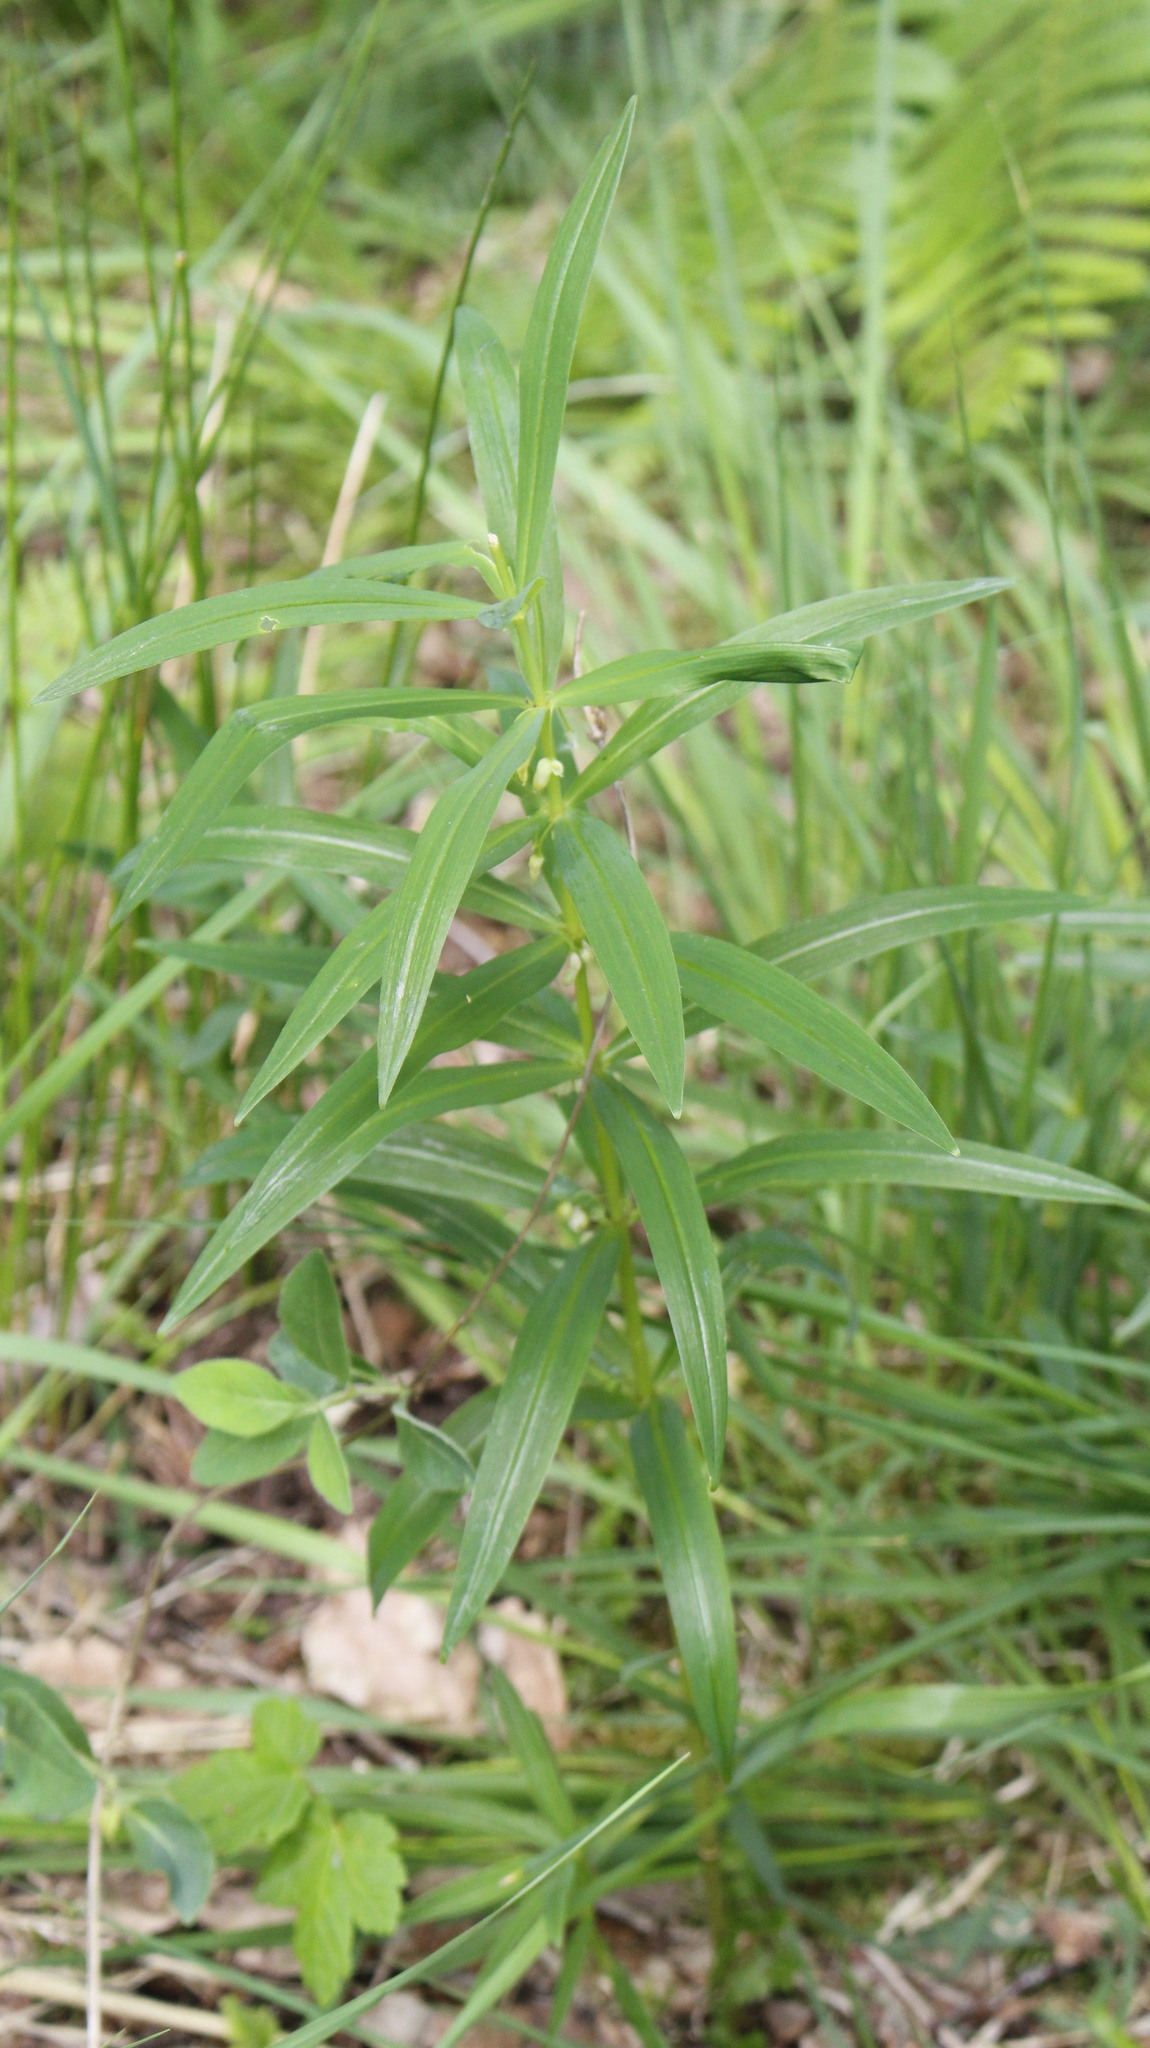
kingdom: Plantae
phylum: Tracheophyta
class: Liliopsida
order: Asparagales
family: Asparagaceae
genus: Polygonatum
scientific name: Polygonatum verticillatum
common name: Whorled solomon's-seal
